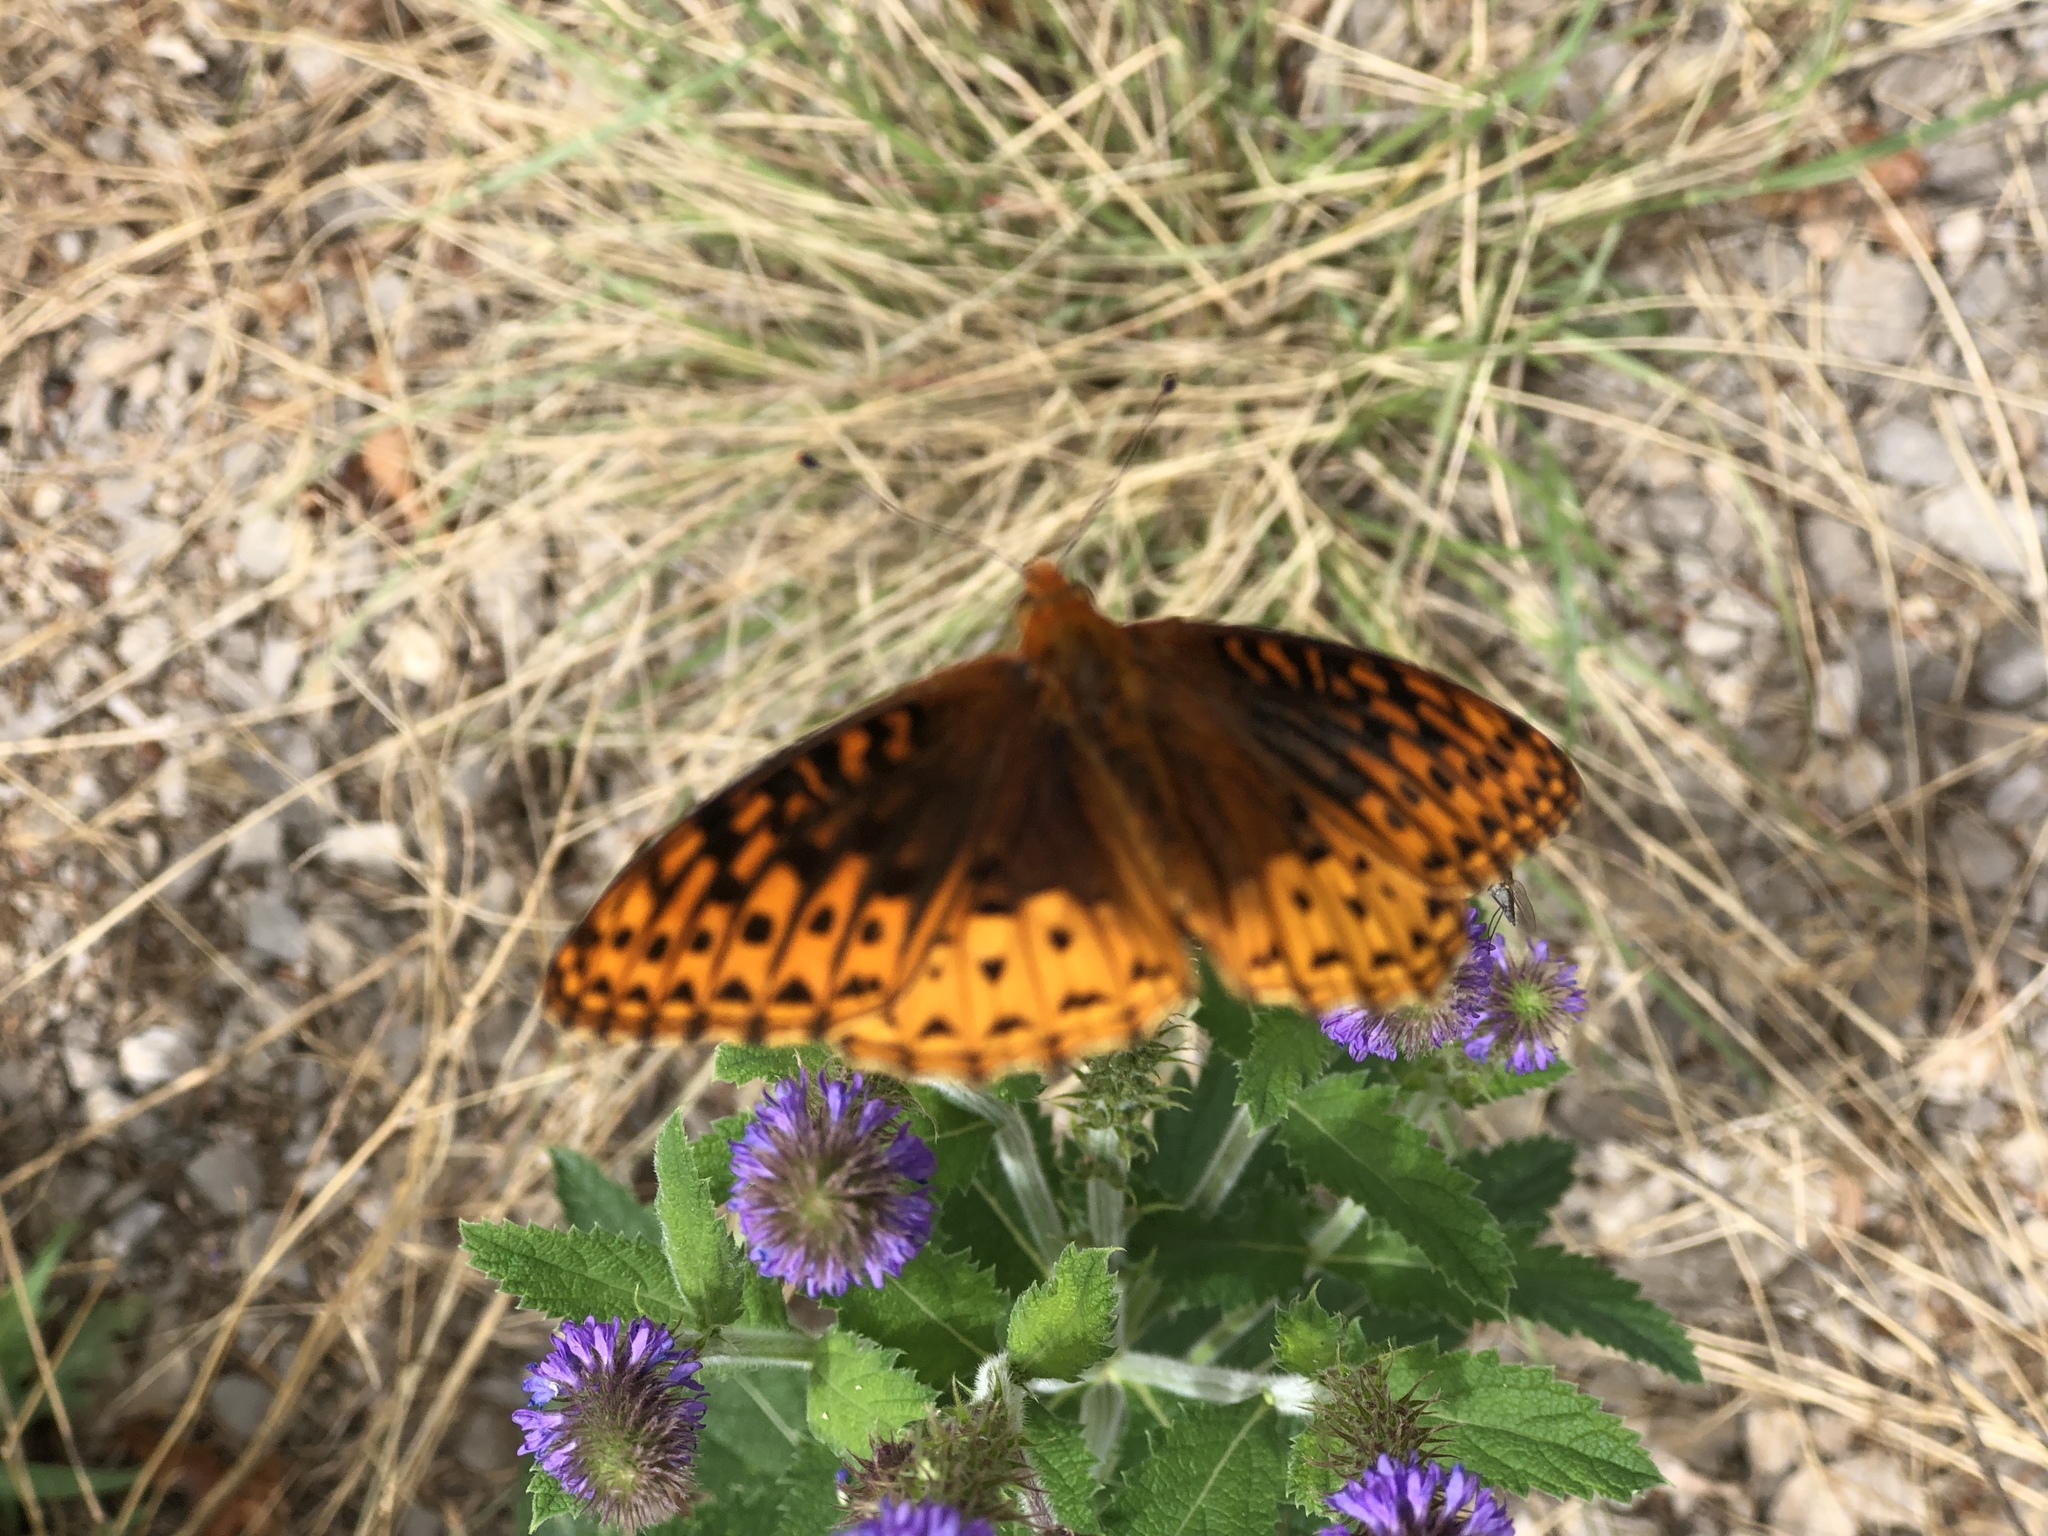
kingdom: Animalia
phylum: Arthropoda
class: Insecta
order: Lepidoptera
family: Nymphalidae
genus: Speyeria
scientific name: Speyeria atlantis
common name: Atlantis fritillary
